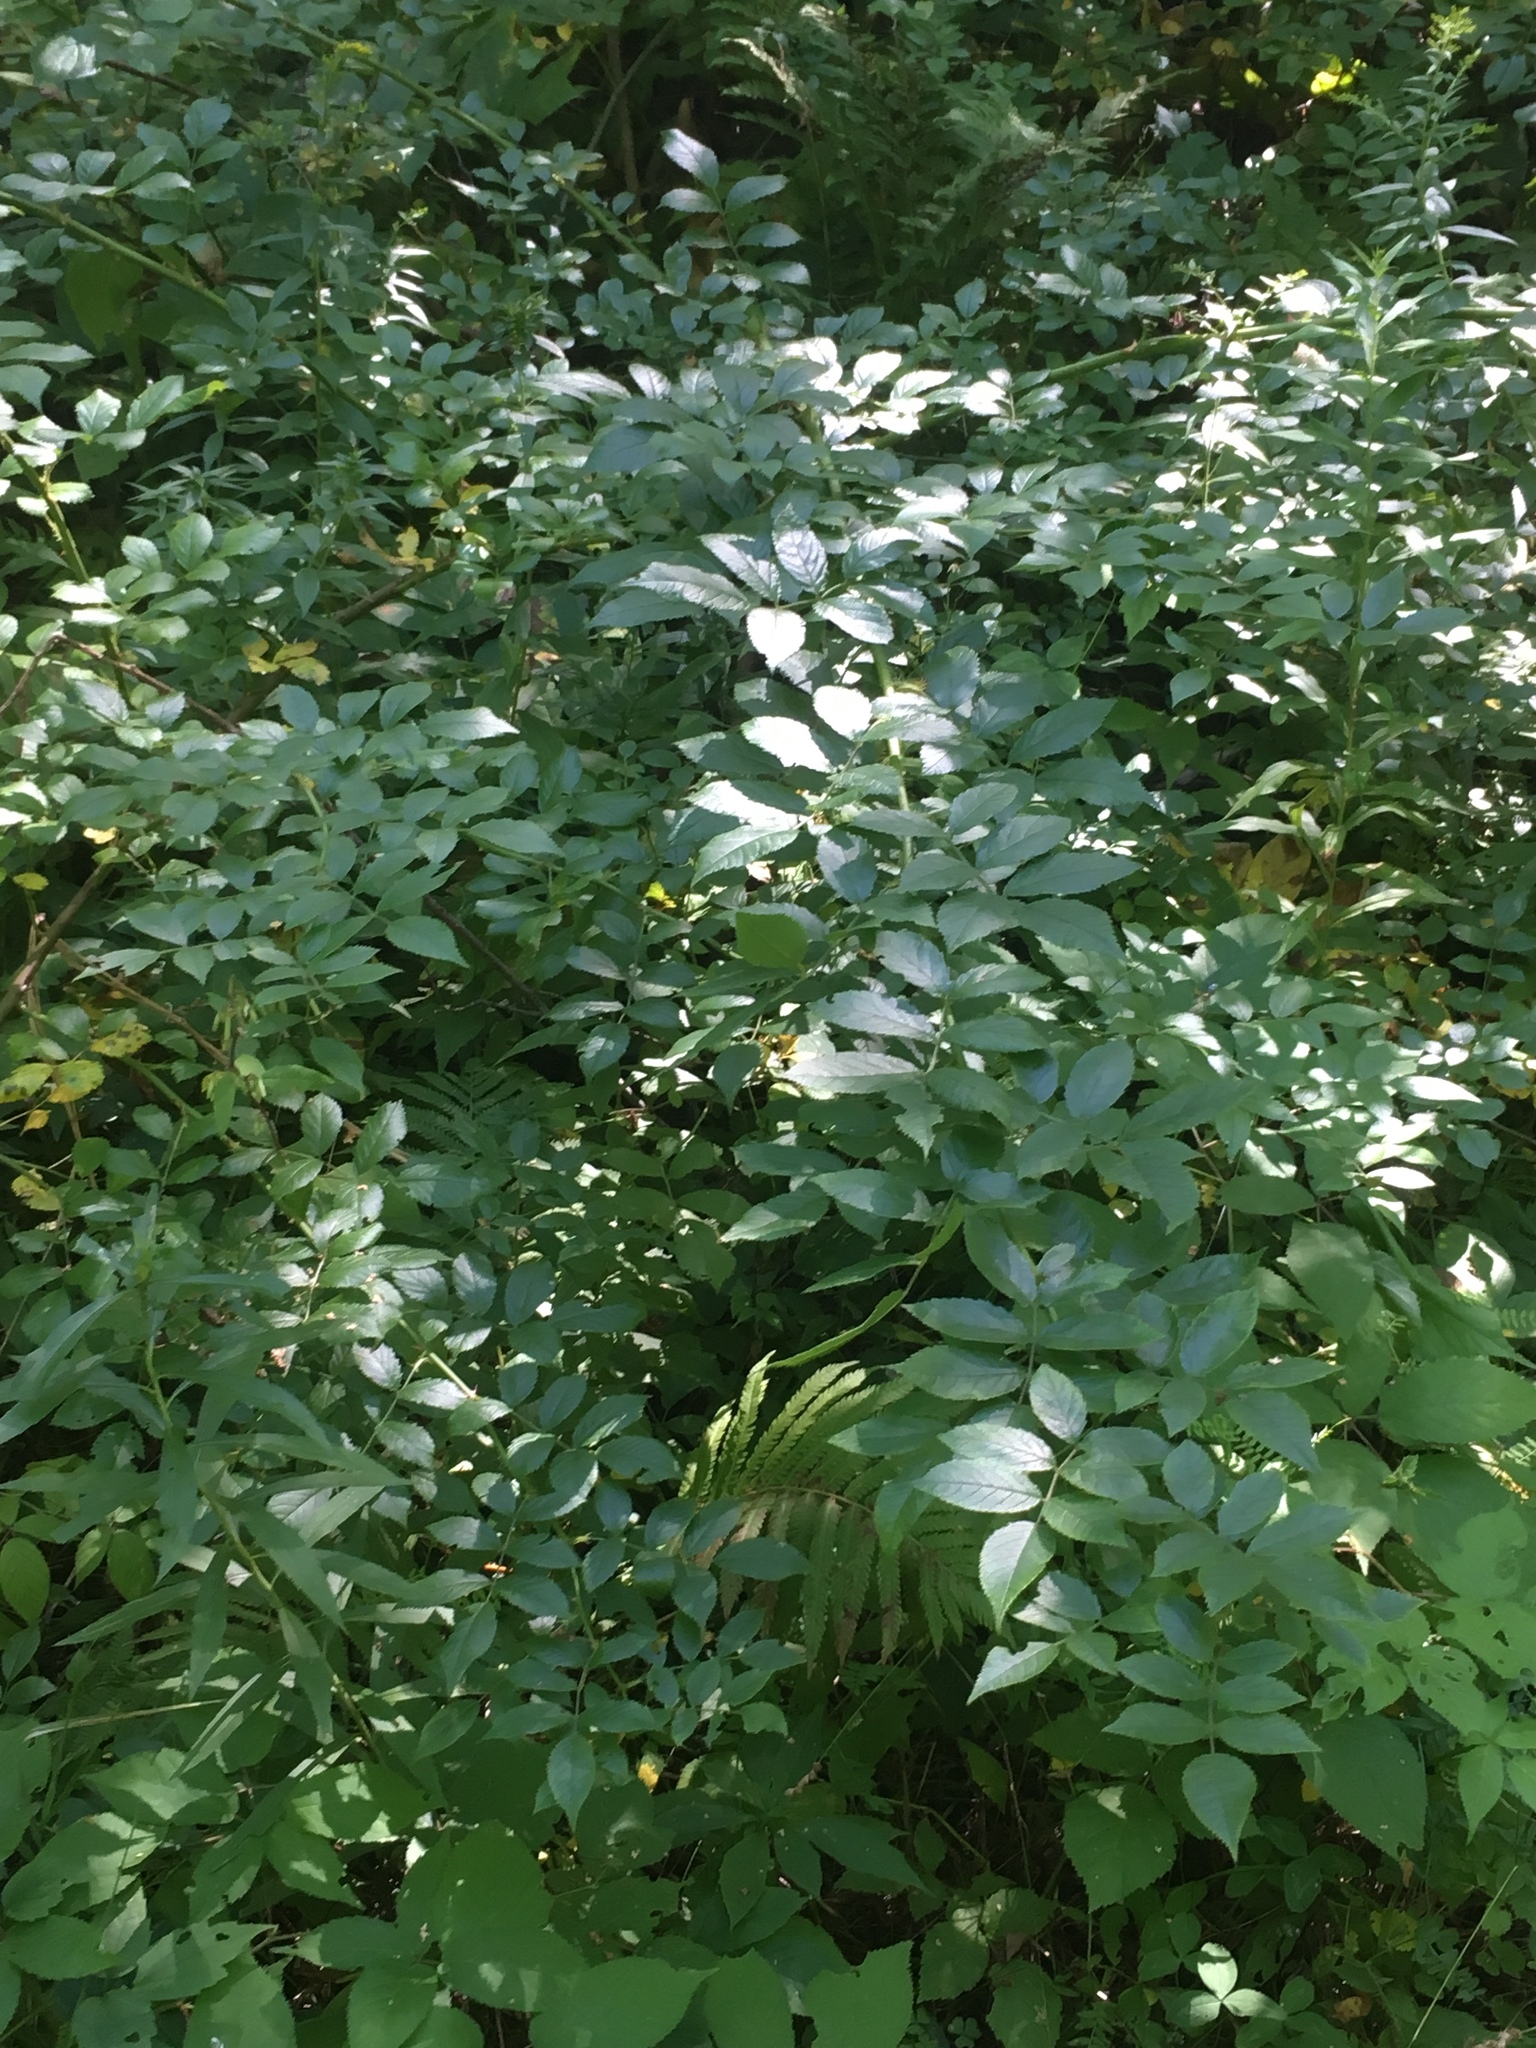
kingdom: Plantae
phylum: Tracheophyta
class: Magnoliopsida
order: Rosales
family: Rosaceae
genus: Rosa
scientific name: Rosa multiflora
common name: Multiflora rose
